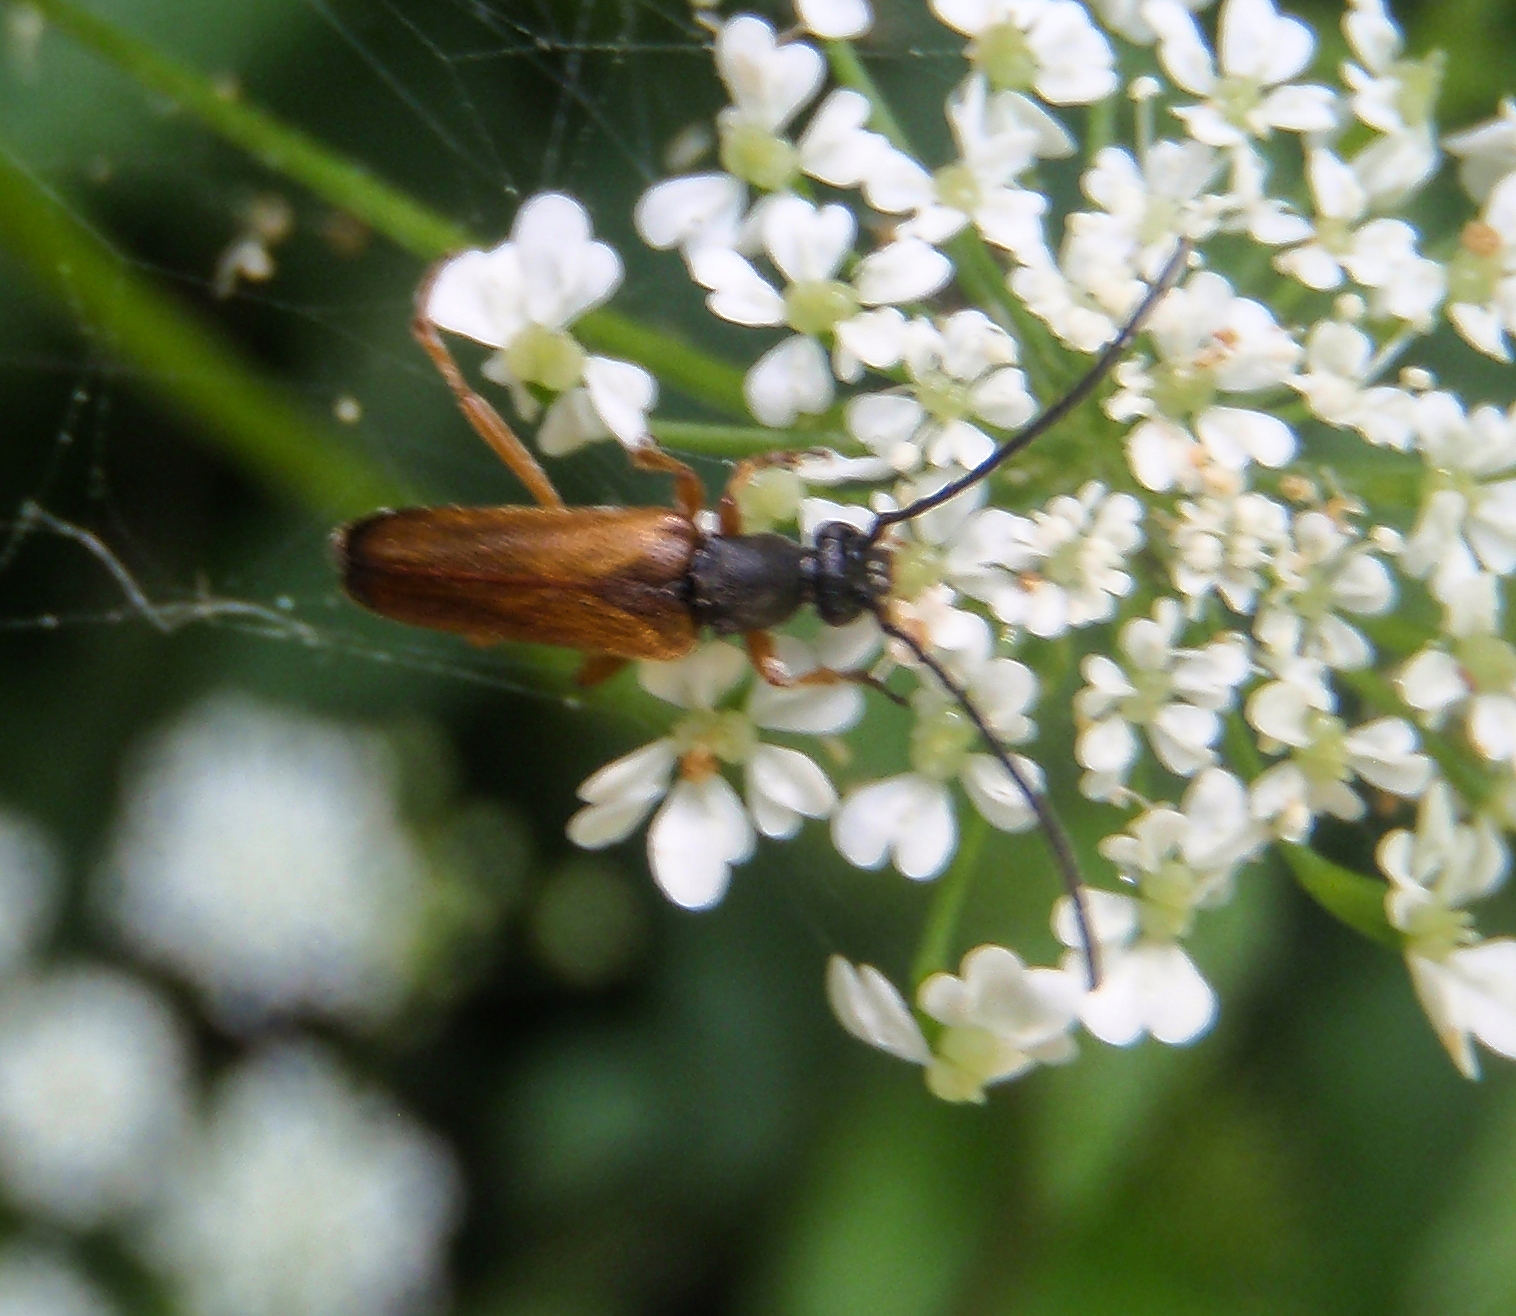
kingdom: Animalia
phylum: Arthropoda
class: Insecta
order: Coleoptera
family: Cerambycidae
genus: Alosterna
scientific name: Alosterna tabacicolor
